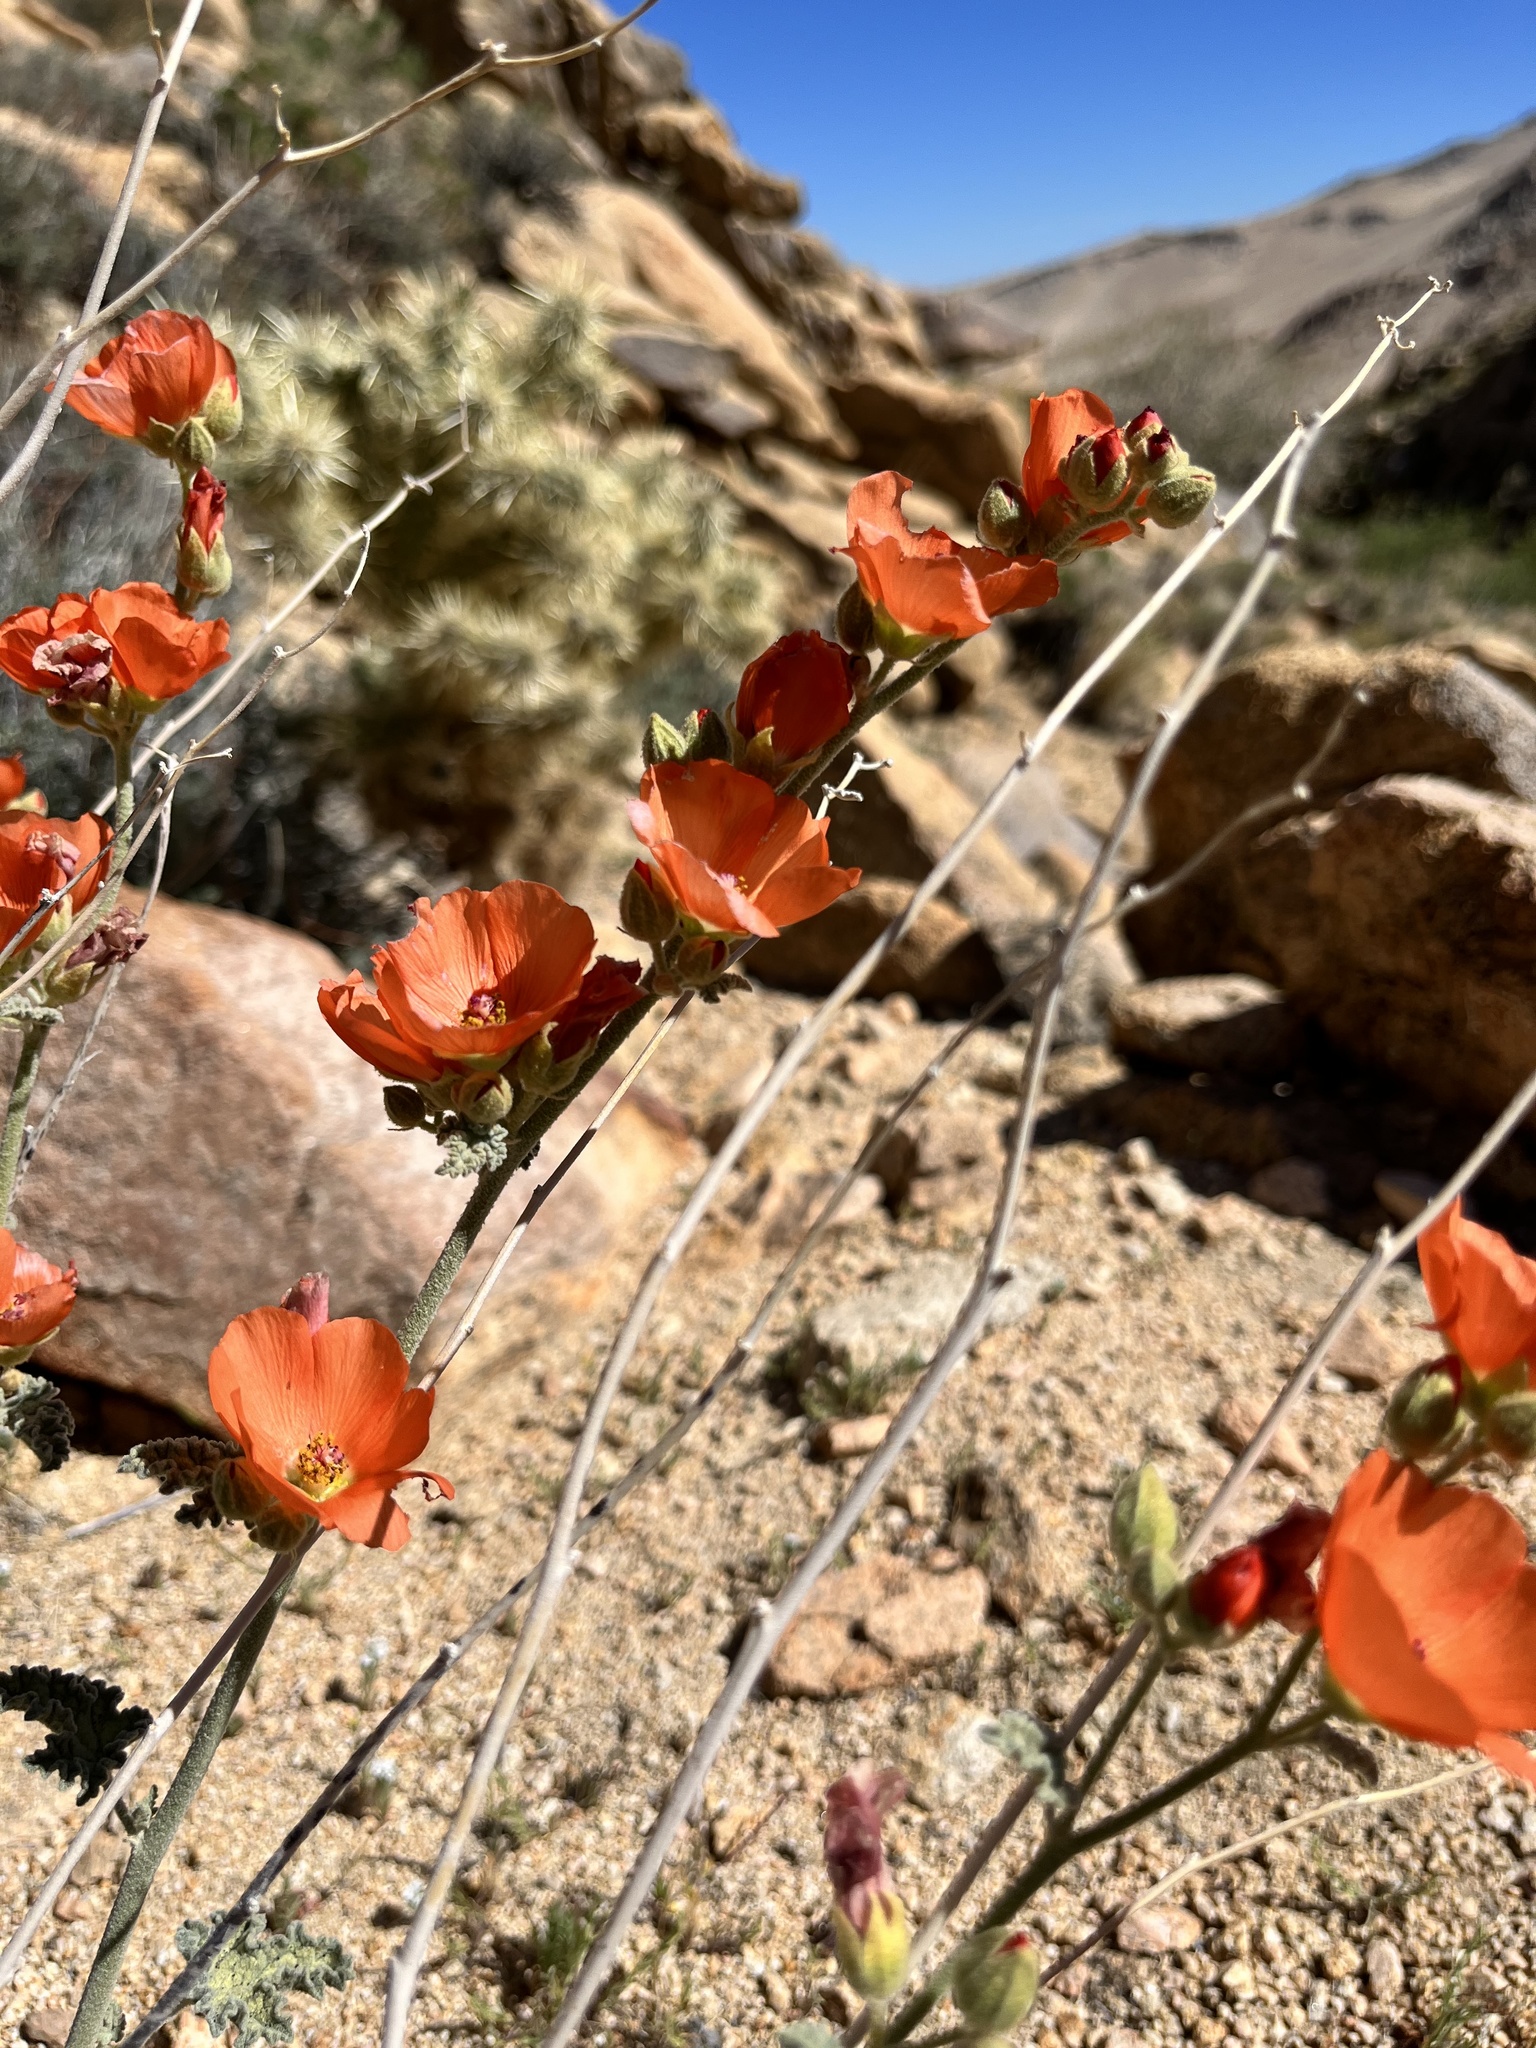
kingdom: Plantae
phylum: Tracheophyta
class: Magnoliopsida
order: Malvales
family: Malvaceae
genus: Sphaeralcea
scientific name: Sphaeralcea ambigua
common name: Apricot globe-mallow
